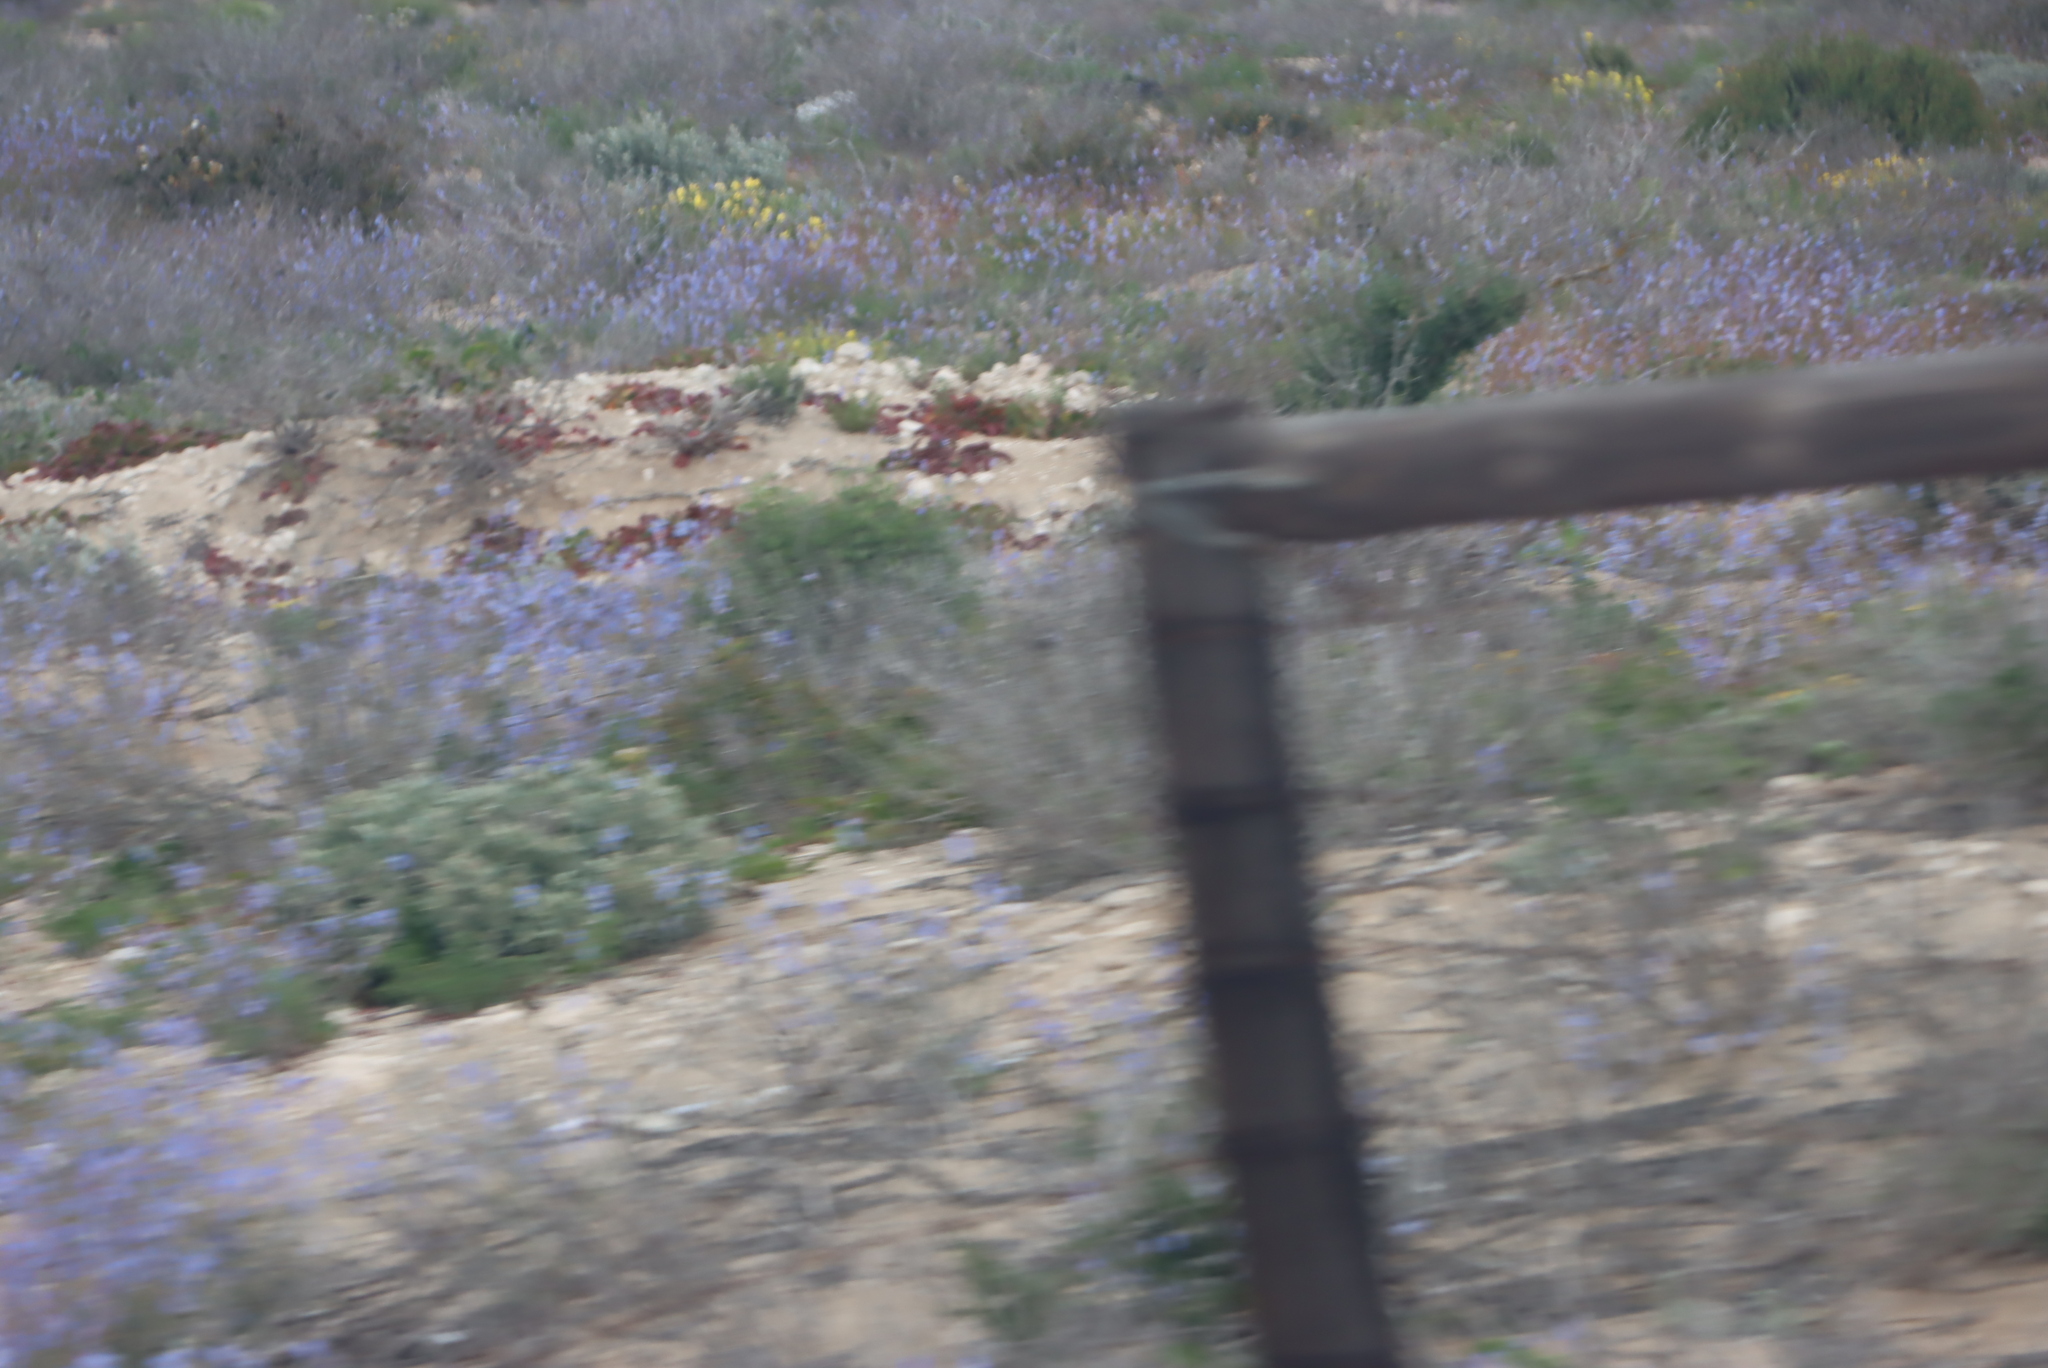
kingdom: Plantae
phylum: Tracheophyta
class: Magnoliopsida
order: Brassicales
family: Brassicaceae
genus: Heliophila
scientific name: Heliophila lactea
